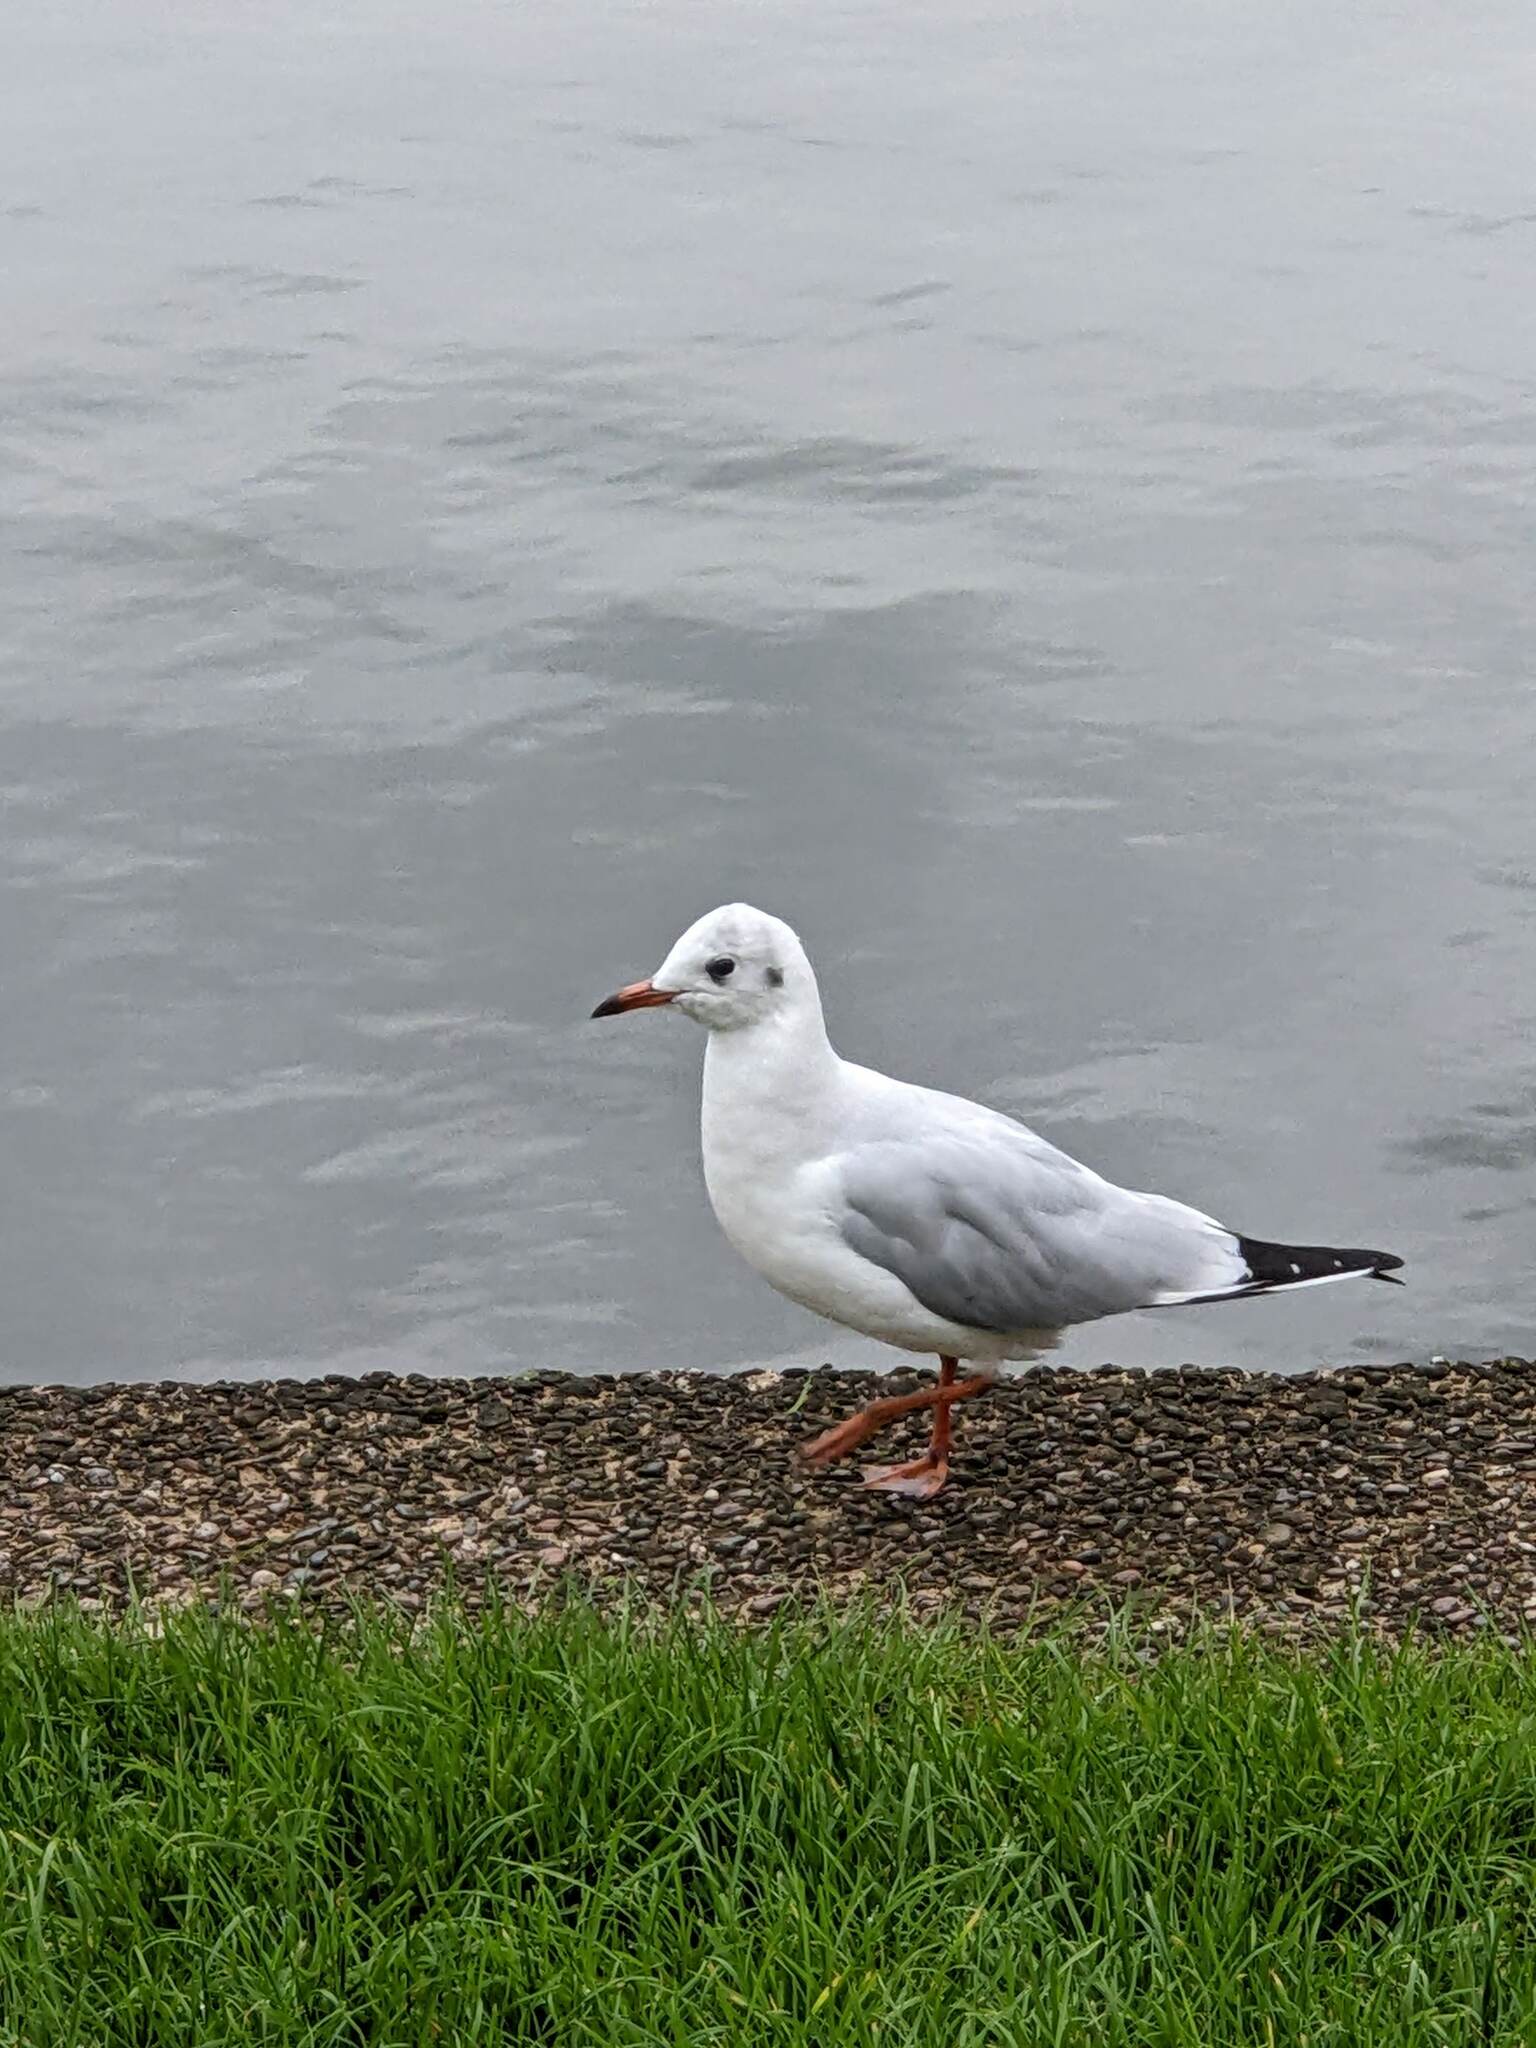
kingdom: Animalia
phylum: Chordata
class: Aves
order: Charadriiformes
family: Laridae
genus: Chroicocephalus
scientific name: Chroicocephalus ridibundus
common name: Black-headed gull
